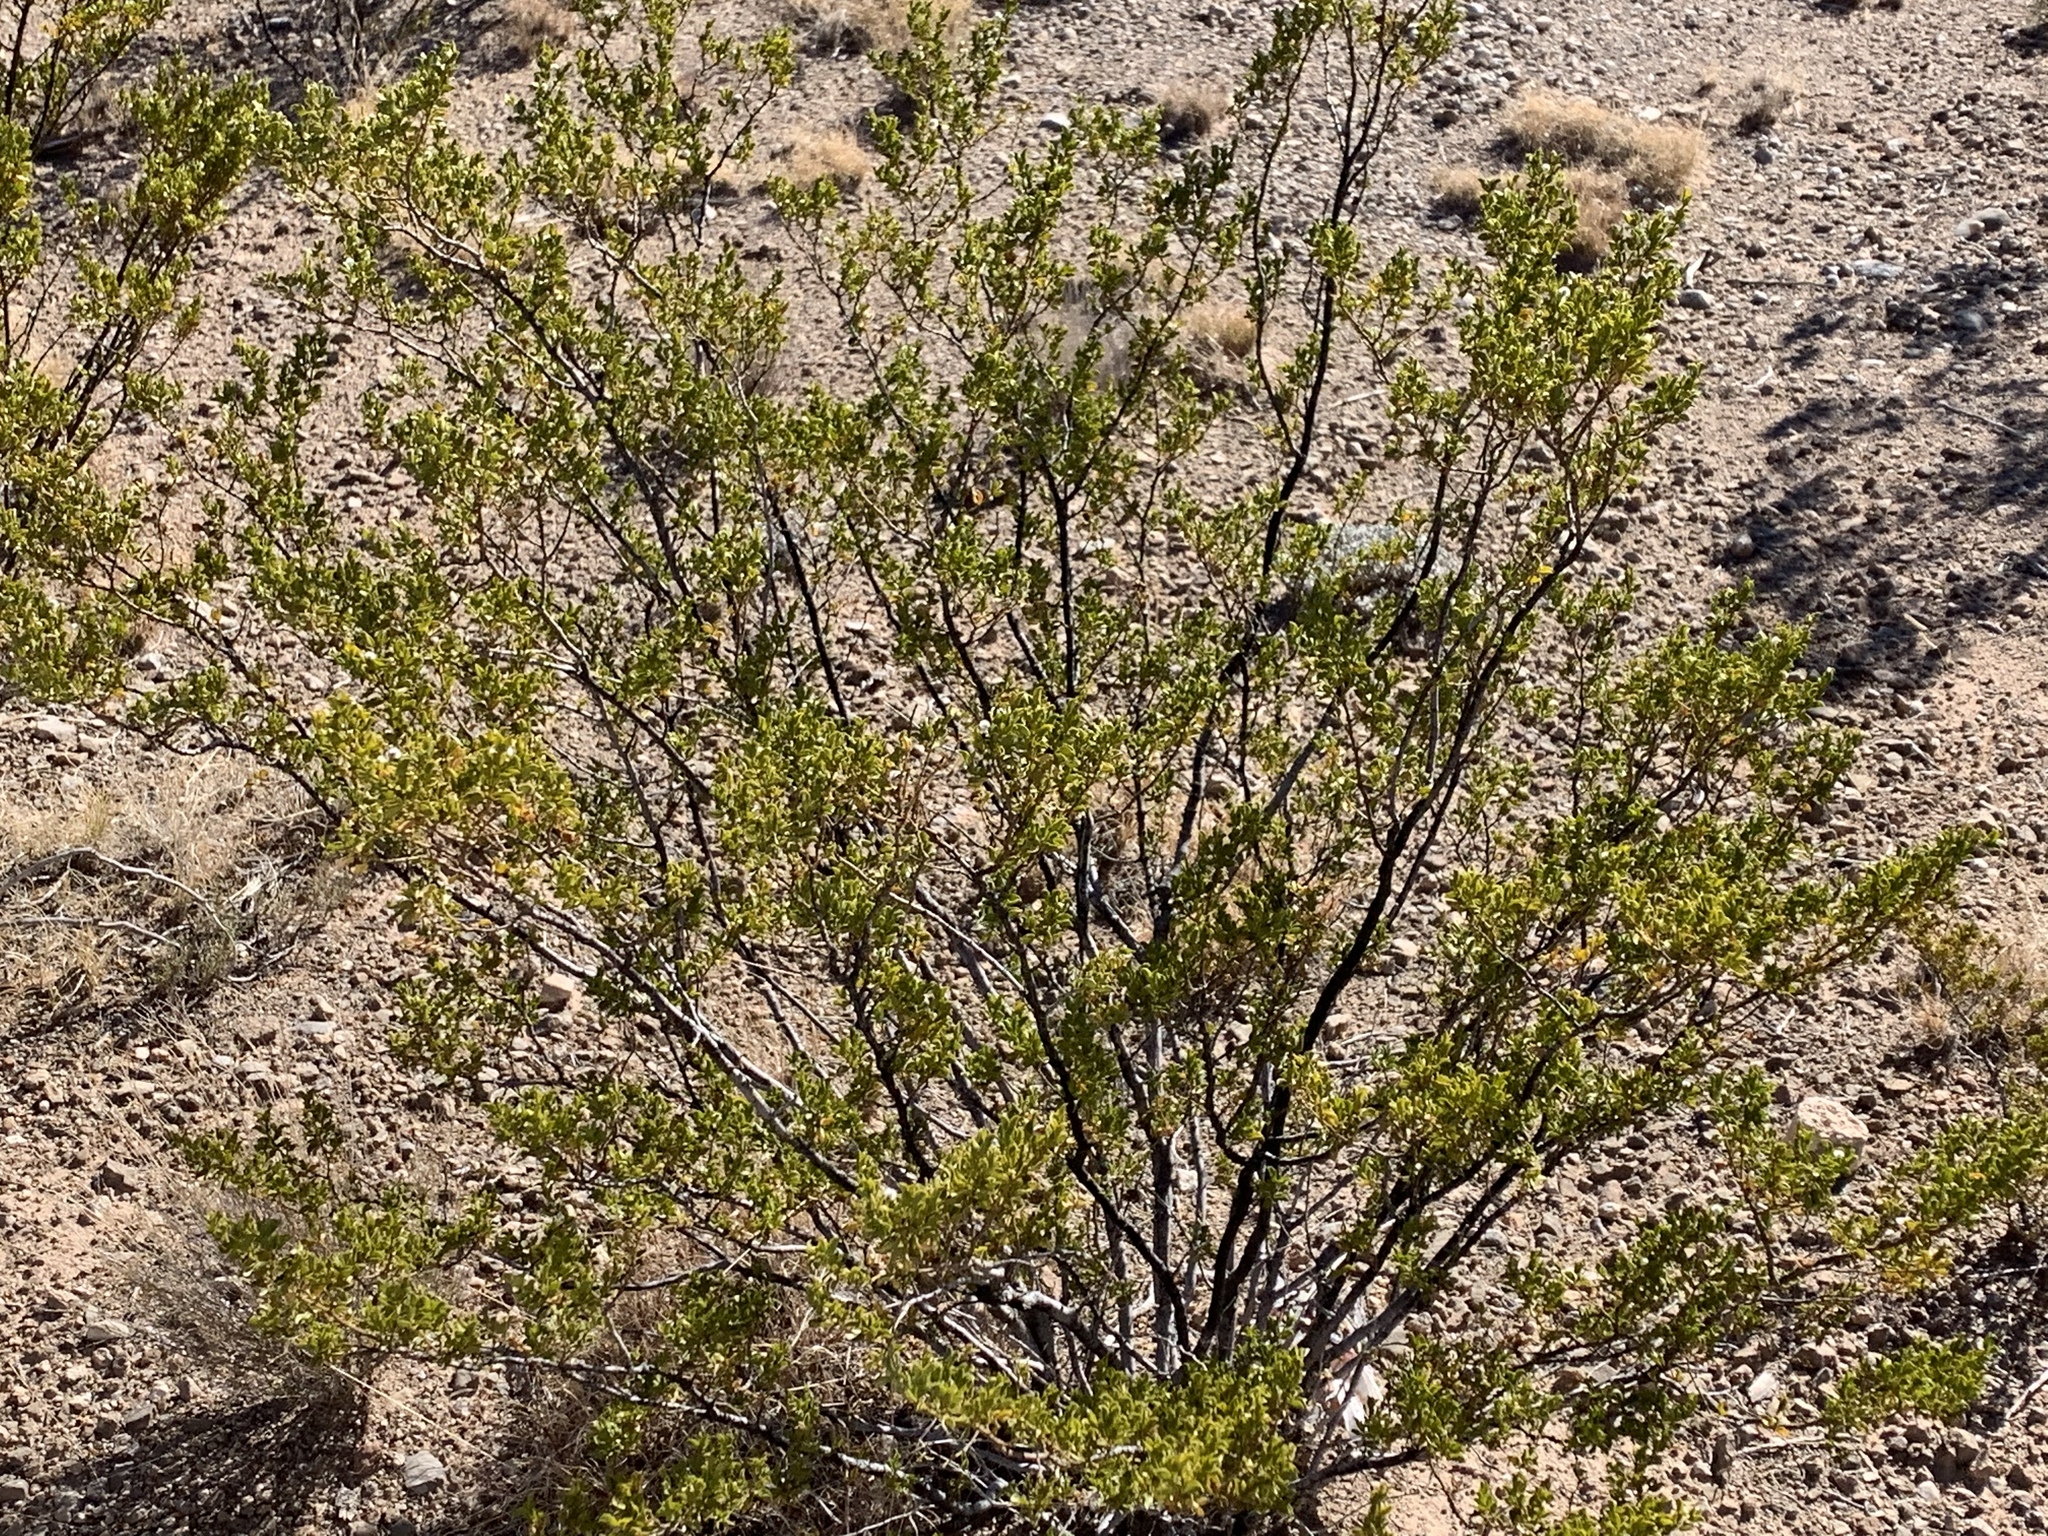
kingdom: Plantae
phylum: Tracheophyta
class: Magnoliopsida
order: Zygophyllales
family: Zygophyllaceae
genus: Larrea
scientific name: Larrea tridentata
